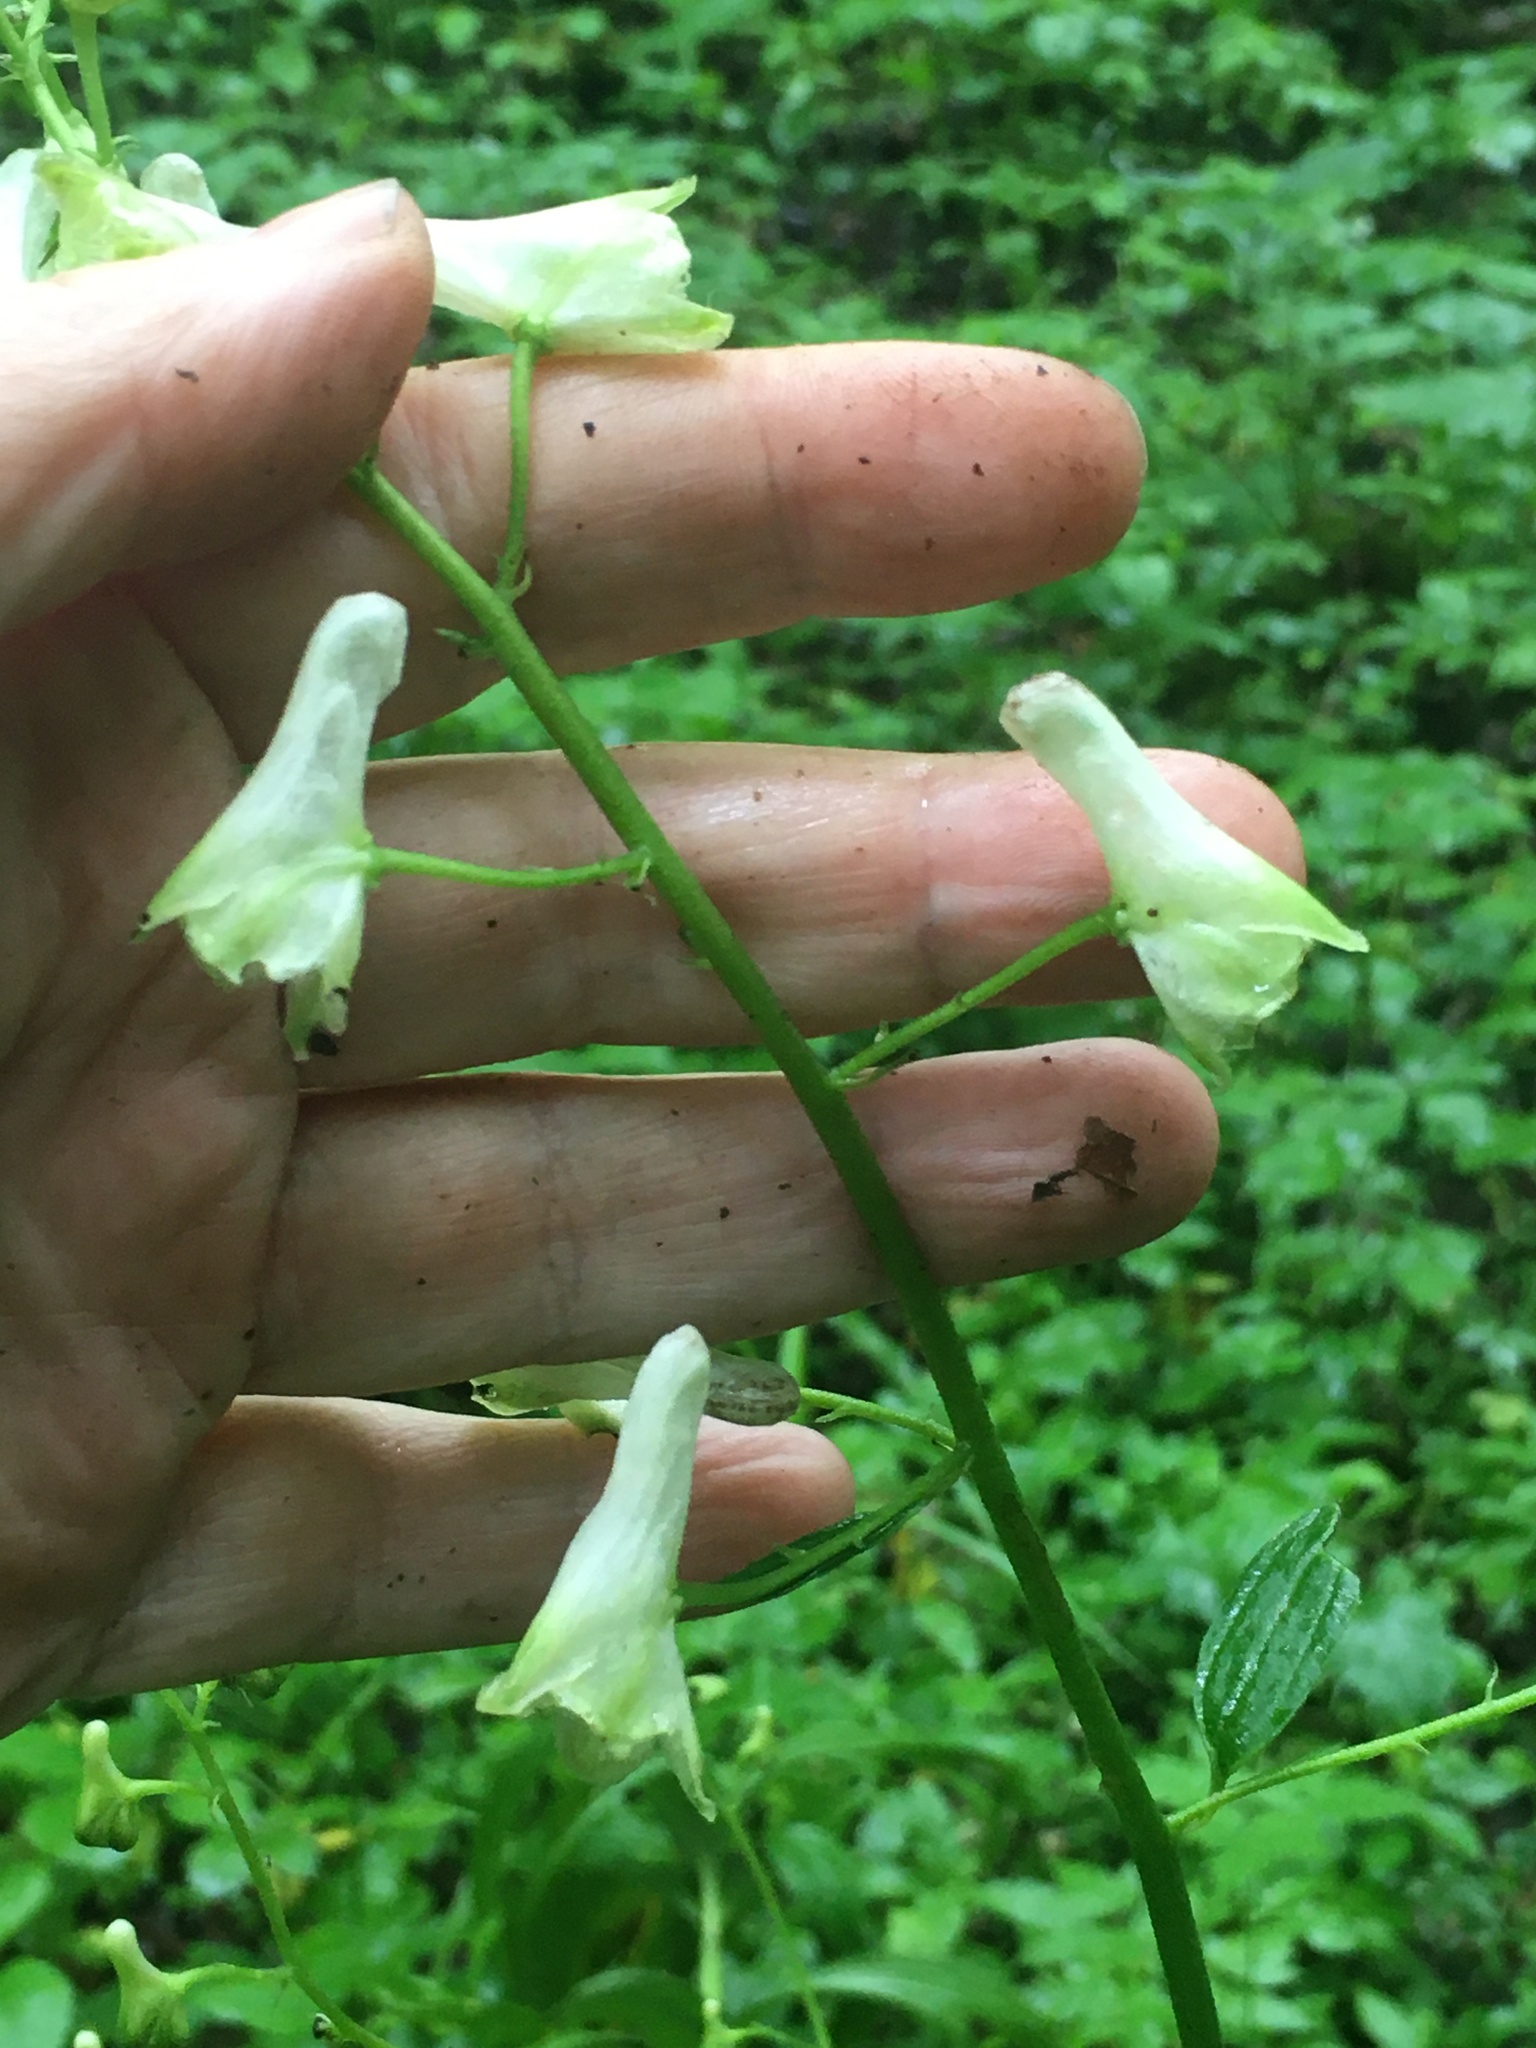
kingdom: Plantae
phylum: Tracheophyta
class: Magnoliopsida
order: Ranunculales
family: Ranunculaceae
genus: Aconitum
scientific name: Aconitum reclinatum
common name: Trailing wolfsbane
